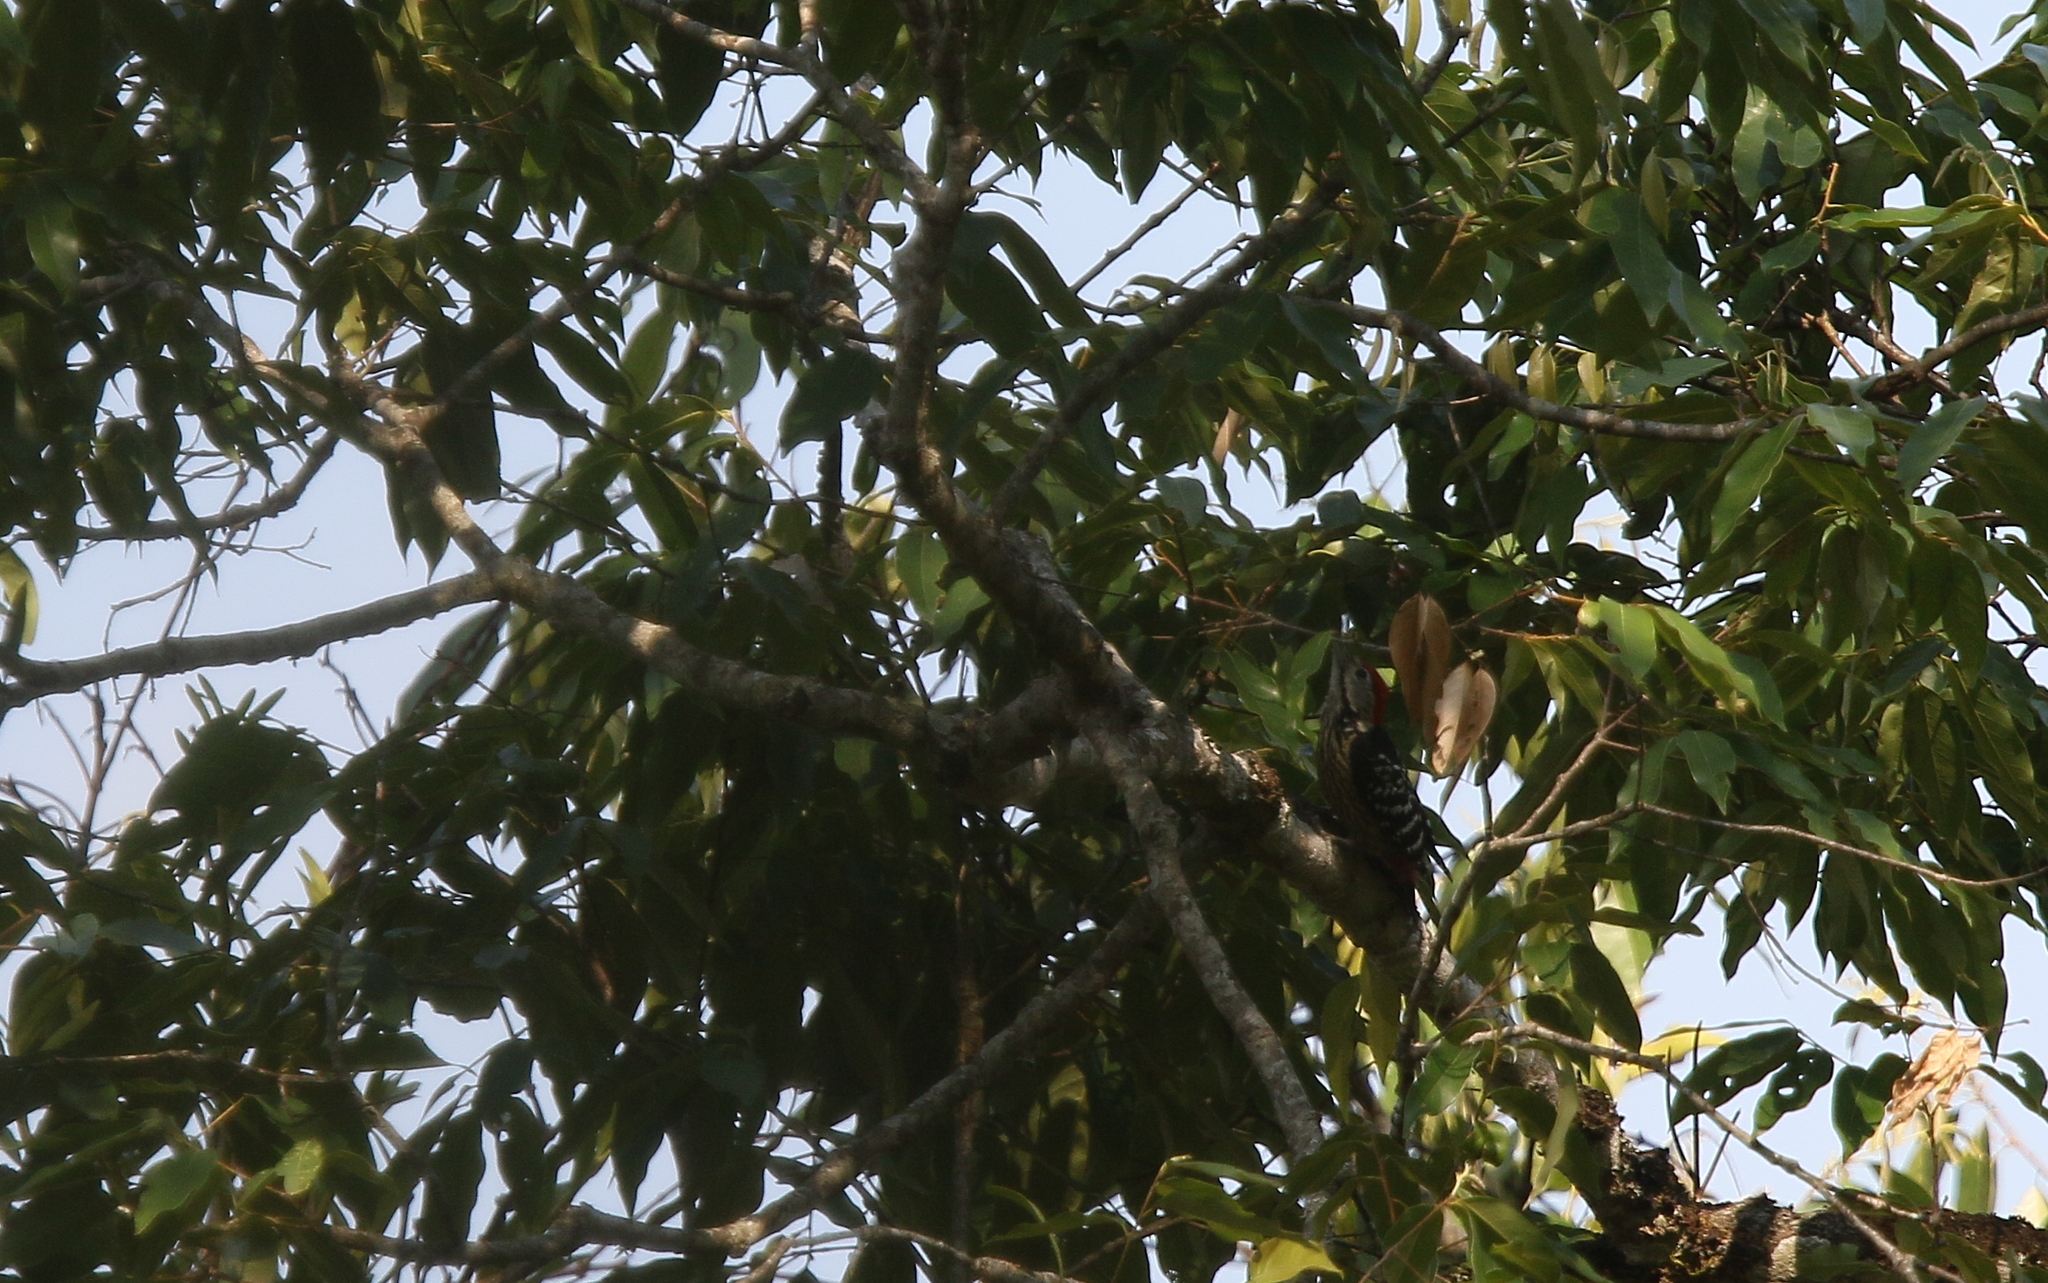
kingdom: Animalia
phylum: Chordata
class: Aves
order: Piciformes
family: Picidae
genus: Dendrocopos
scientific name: Dendrocopos atratus
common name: Stripe-breasted woodpecker
